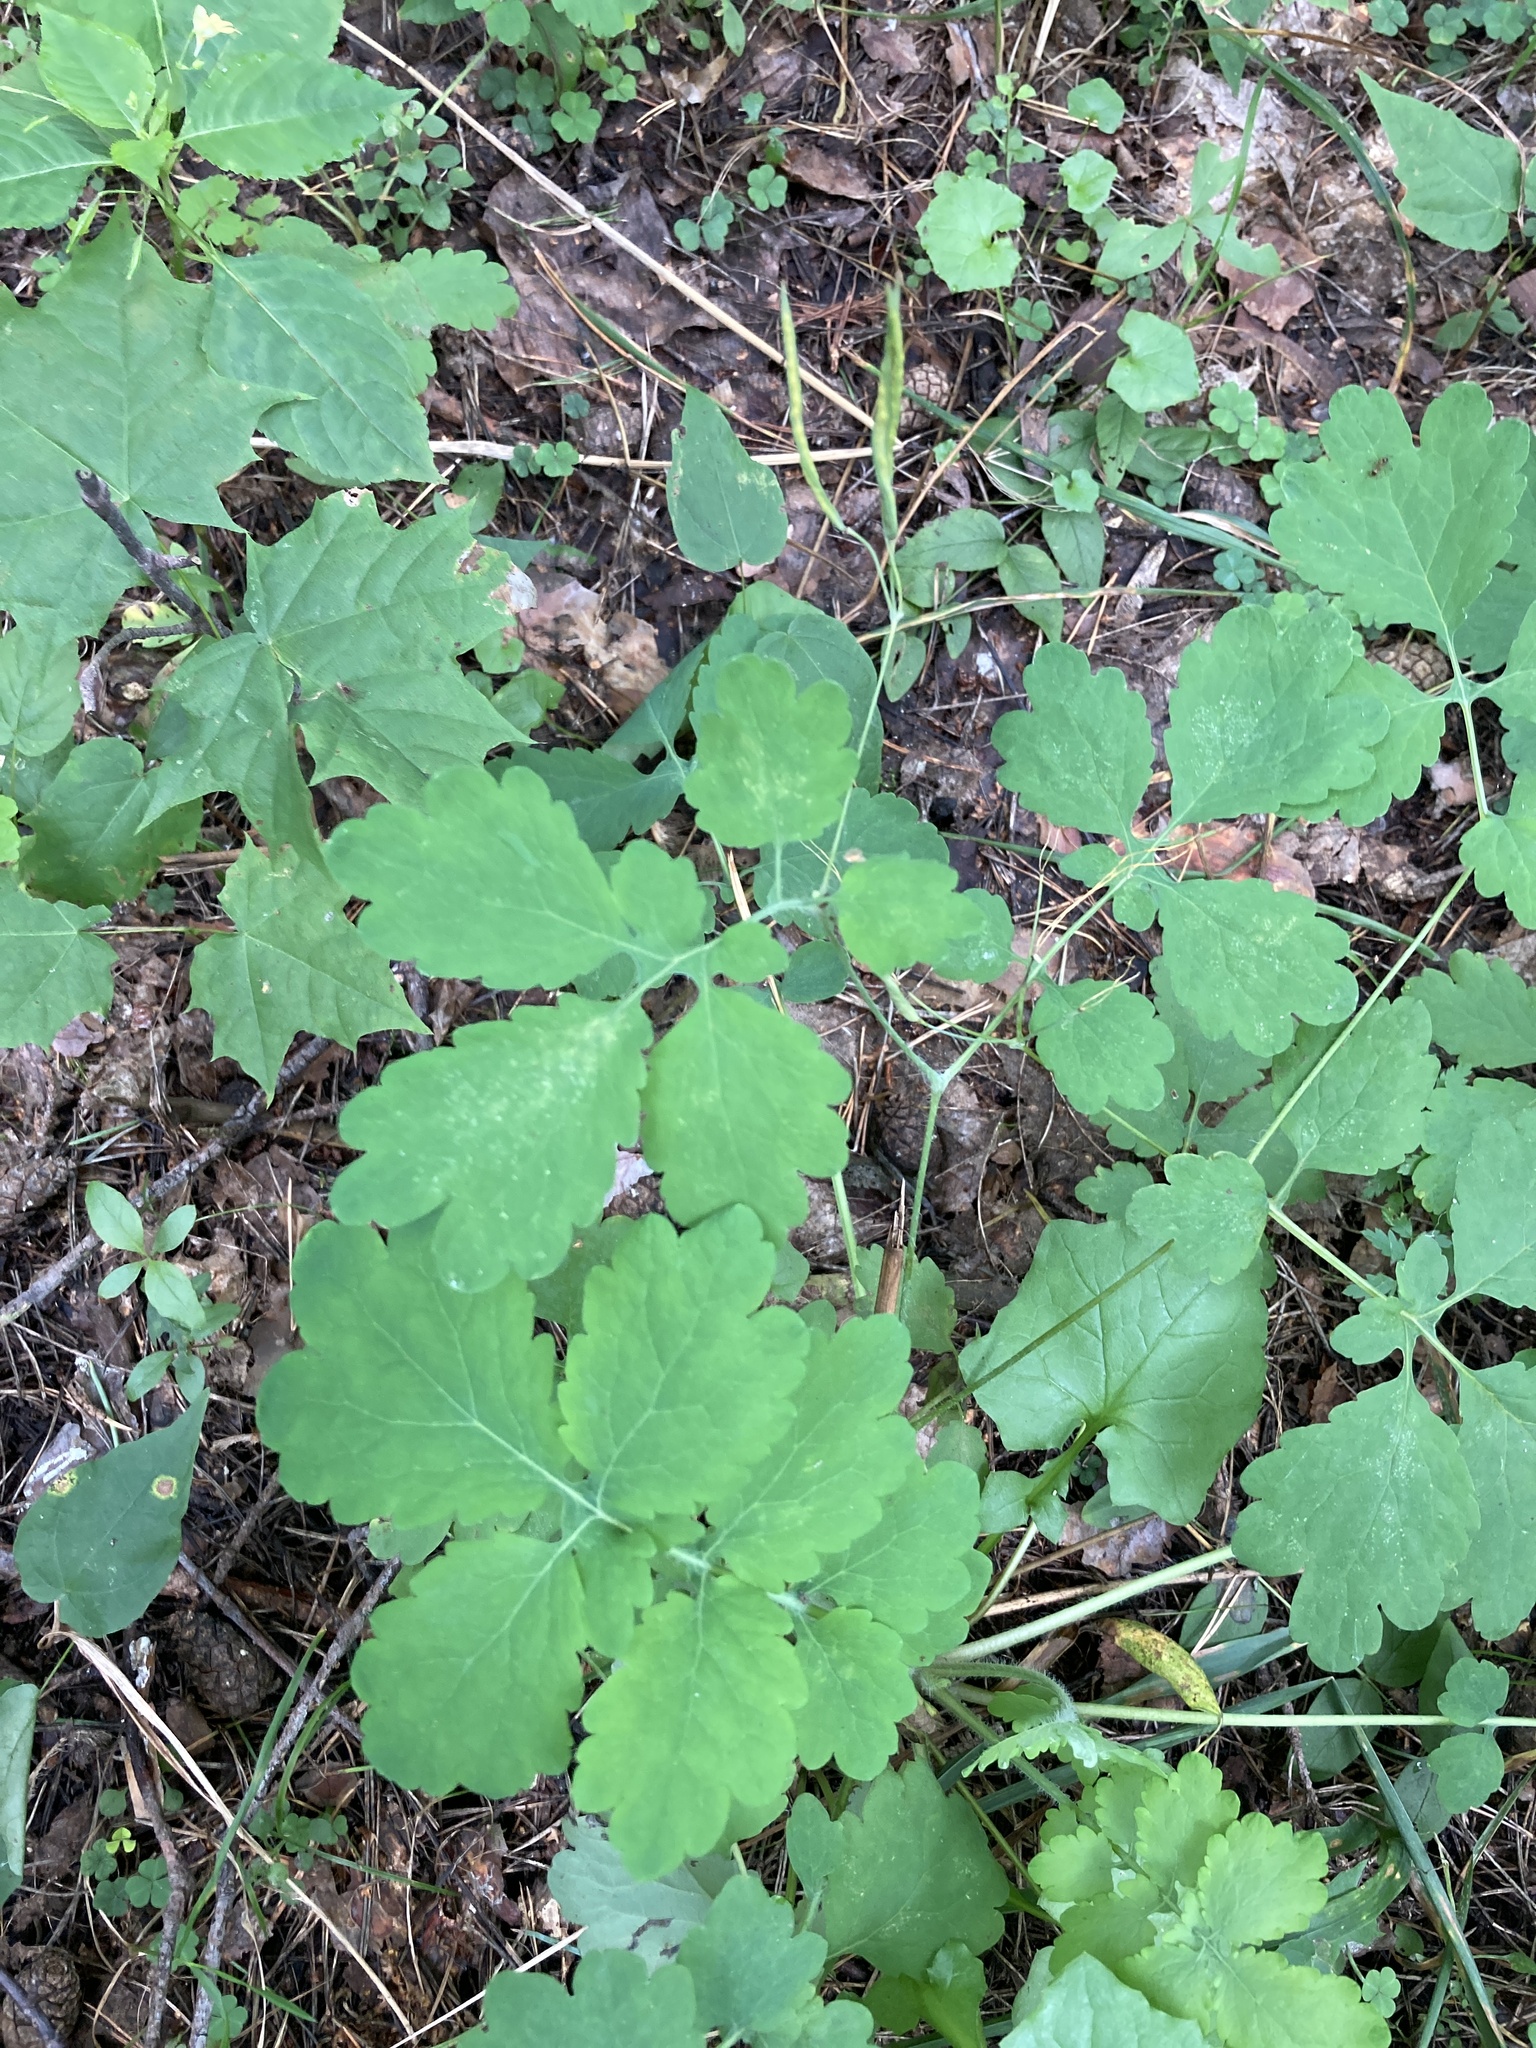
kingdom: Plantae
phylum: Tracheophyta
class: Magnoliopsida
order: Ranunculales
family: Papaveraceae
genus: Chelidonium
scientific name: Chelidonium majus
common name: Greater celandine
